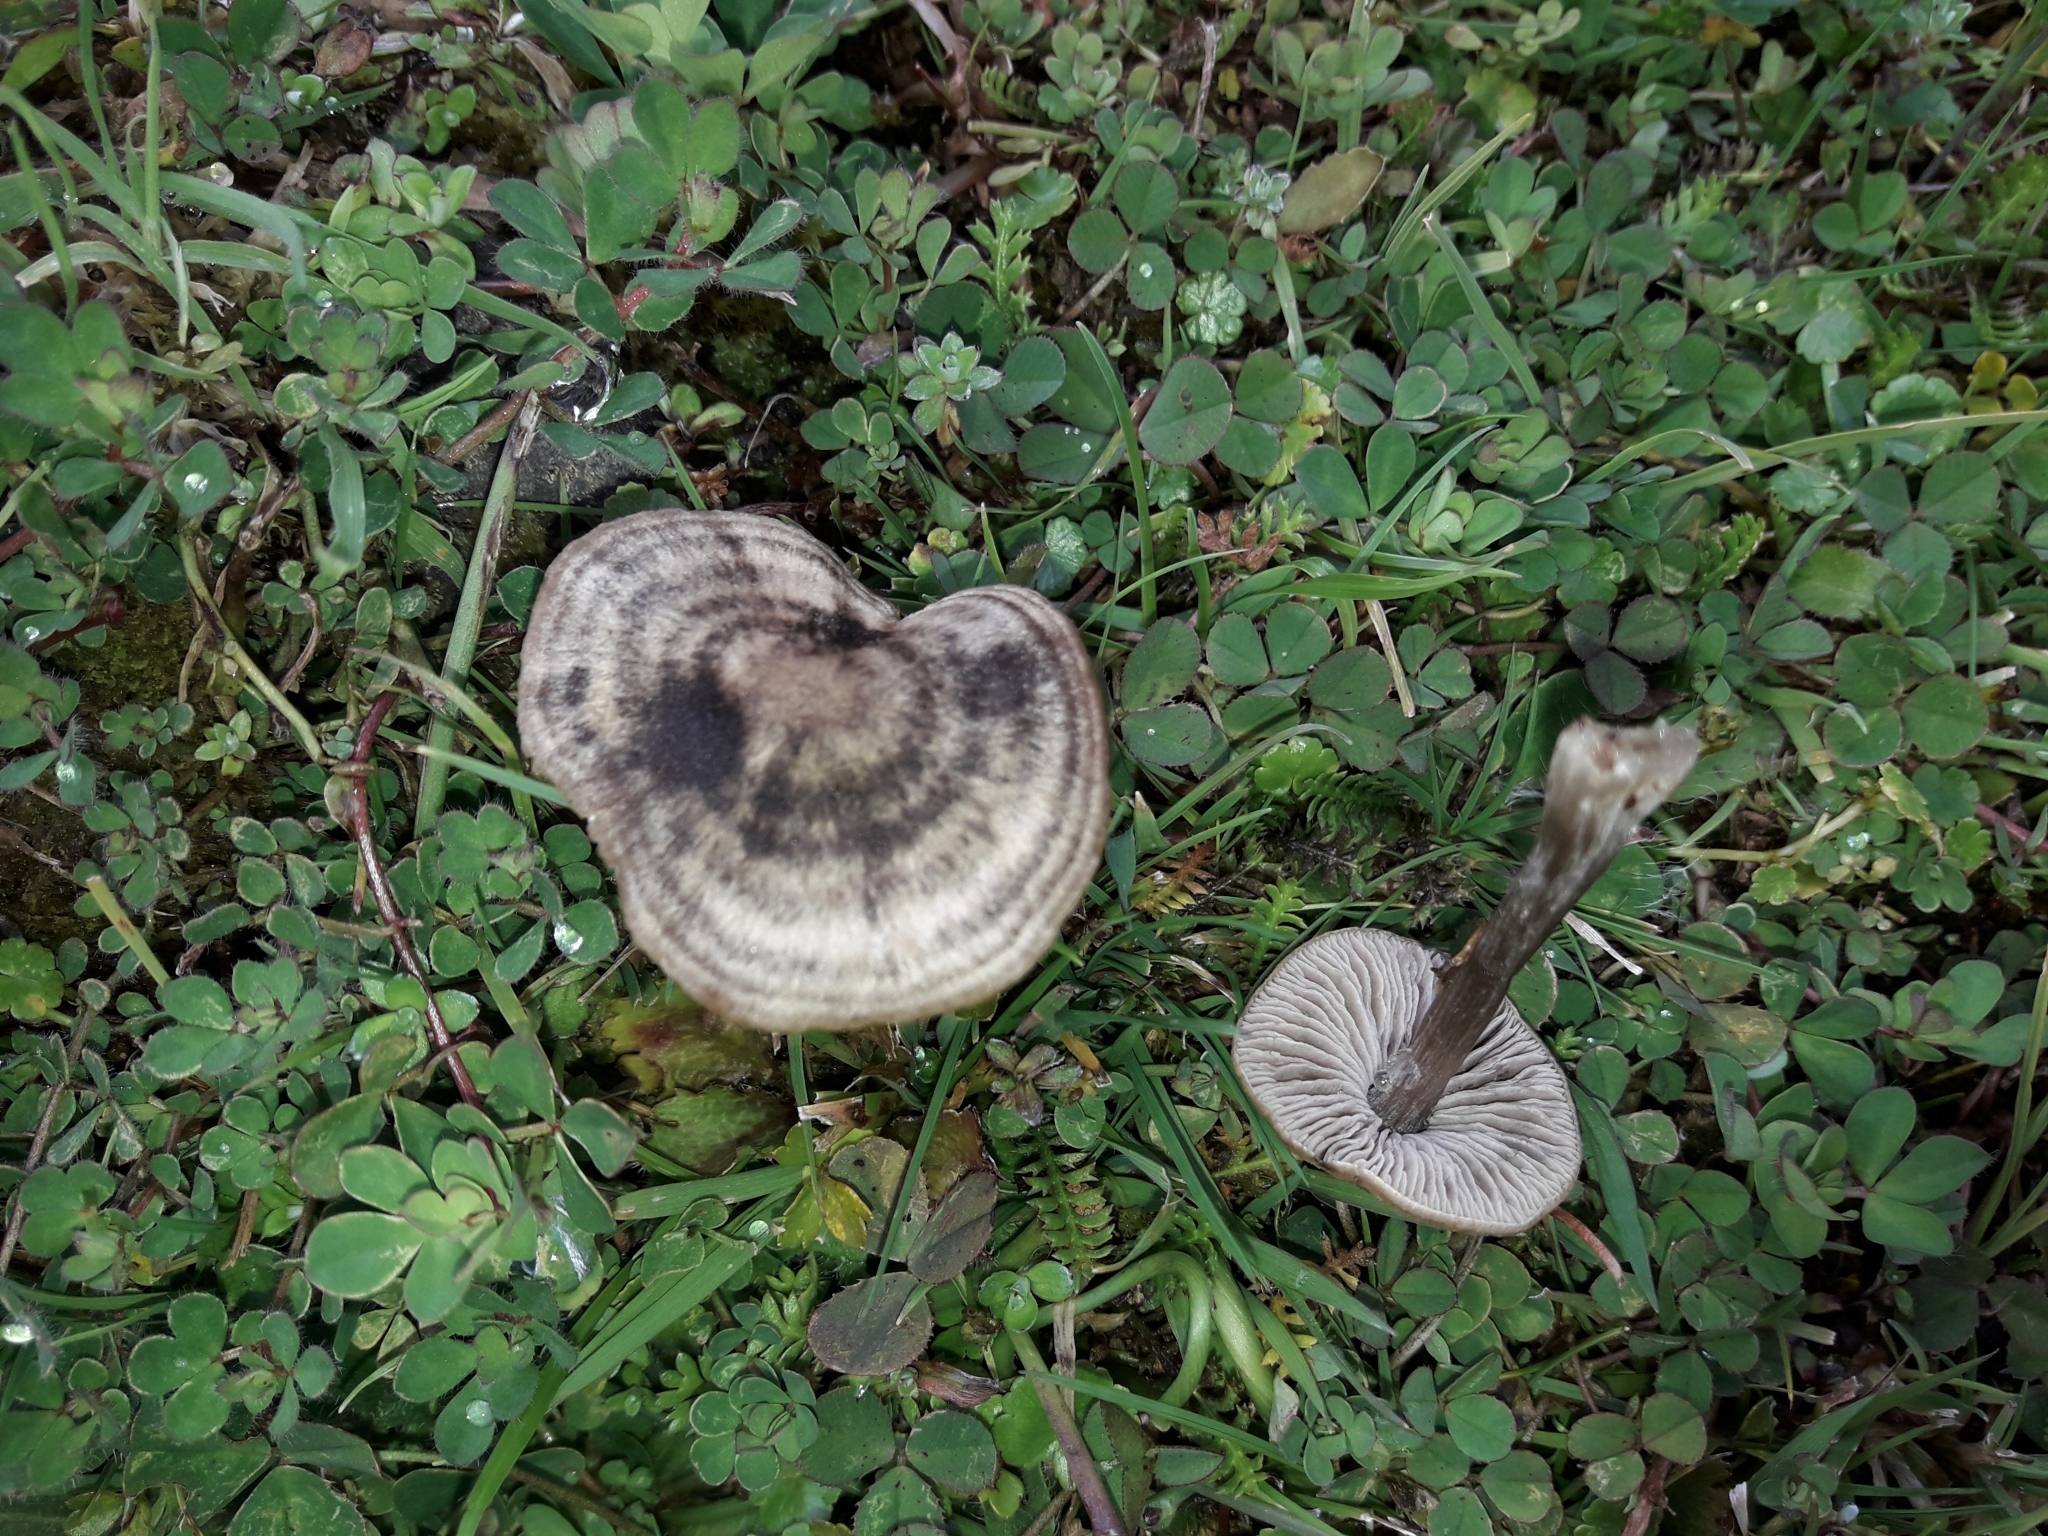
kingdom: Fungi
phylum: Basidiomycota
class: Agaricomycetes
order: Agaricales
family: Entolomataceae
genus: Entoloma
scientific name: Entoloma perzonatum
